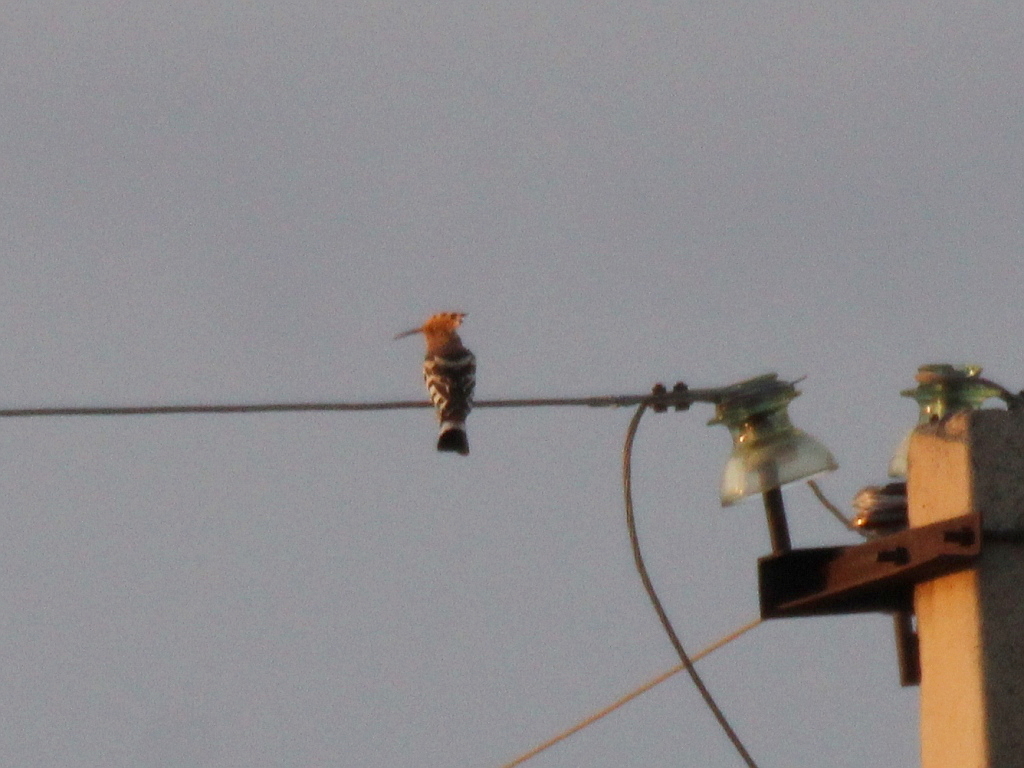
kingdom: Animalia
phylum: Chordata
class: Aves
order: Bucerotiformes
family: Upupidae
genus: Upupa
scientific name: Upupa epops
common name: Eurasian hoopoe
